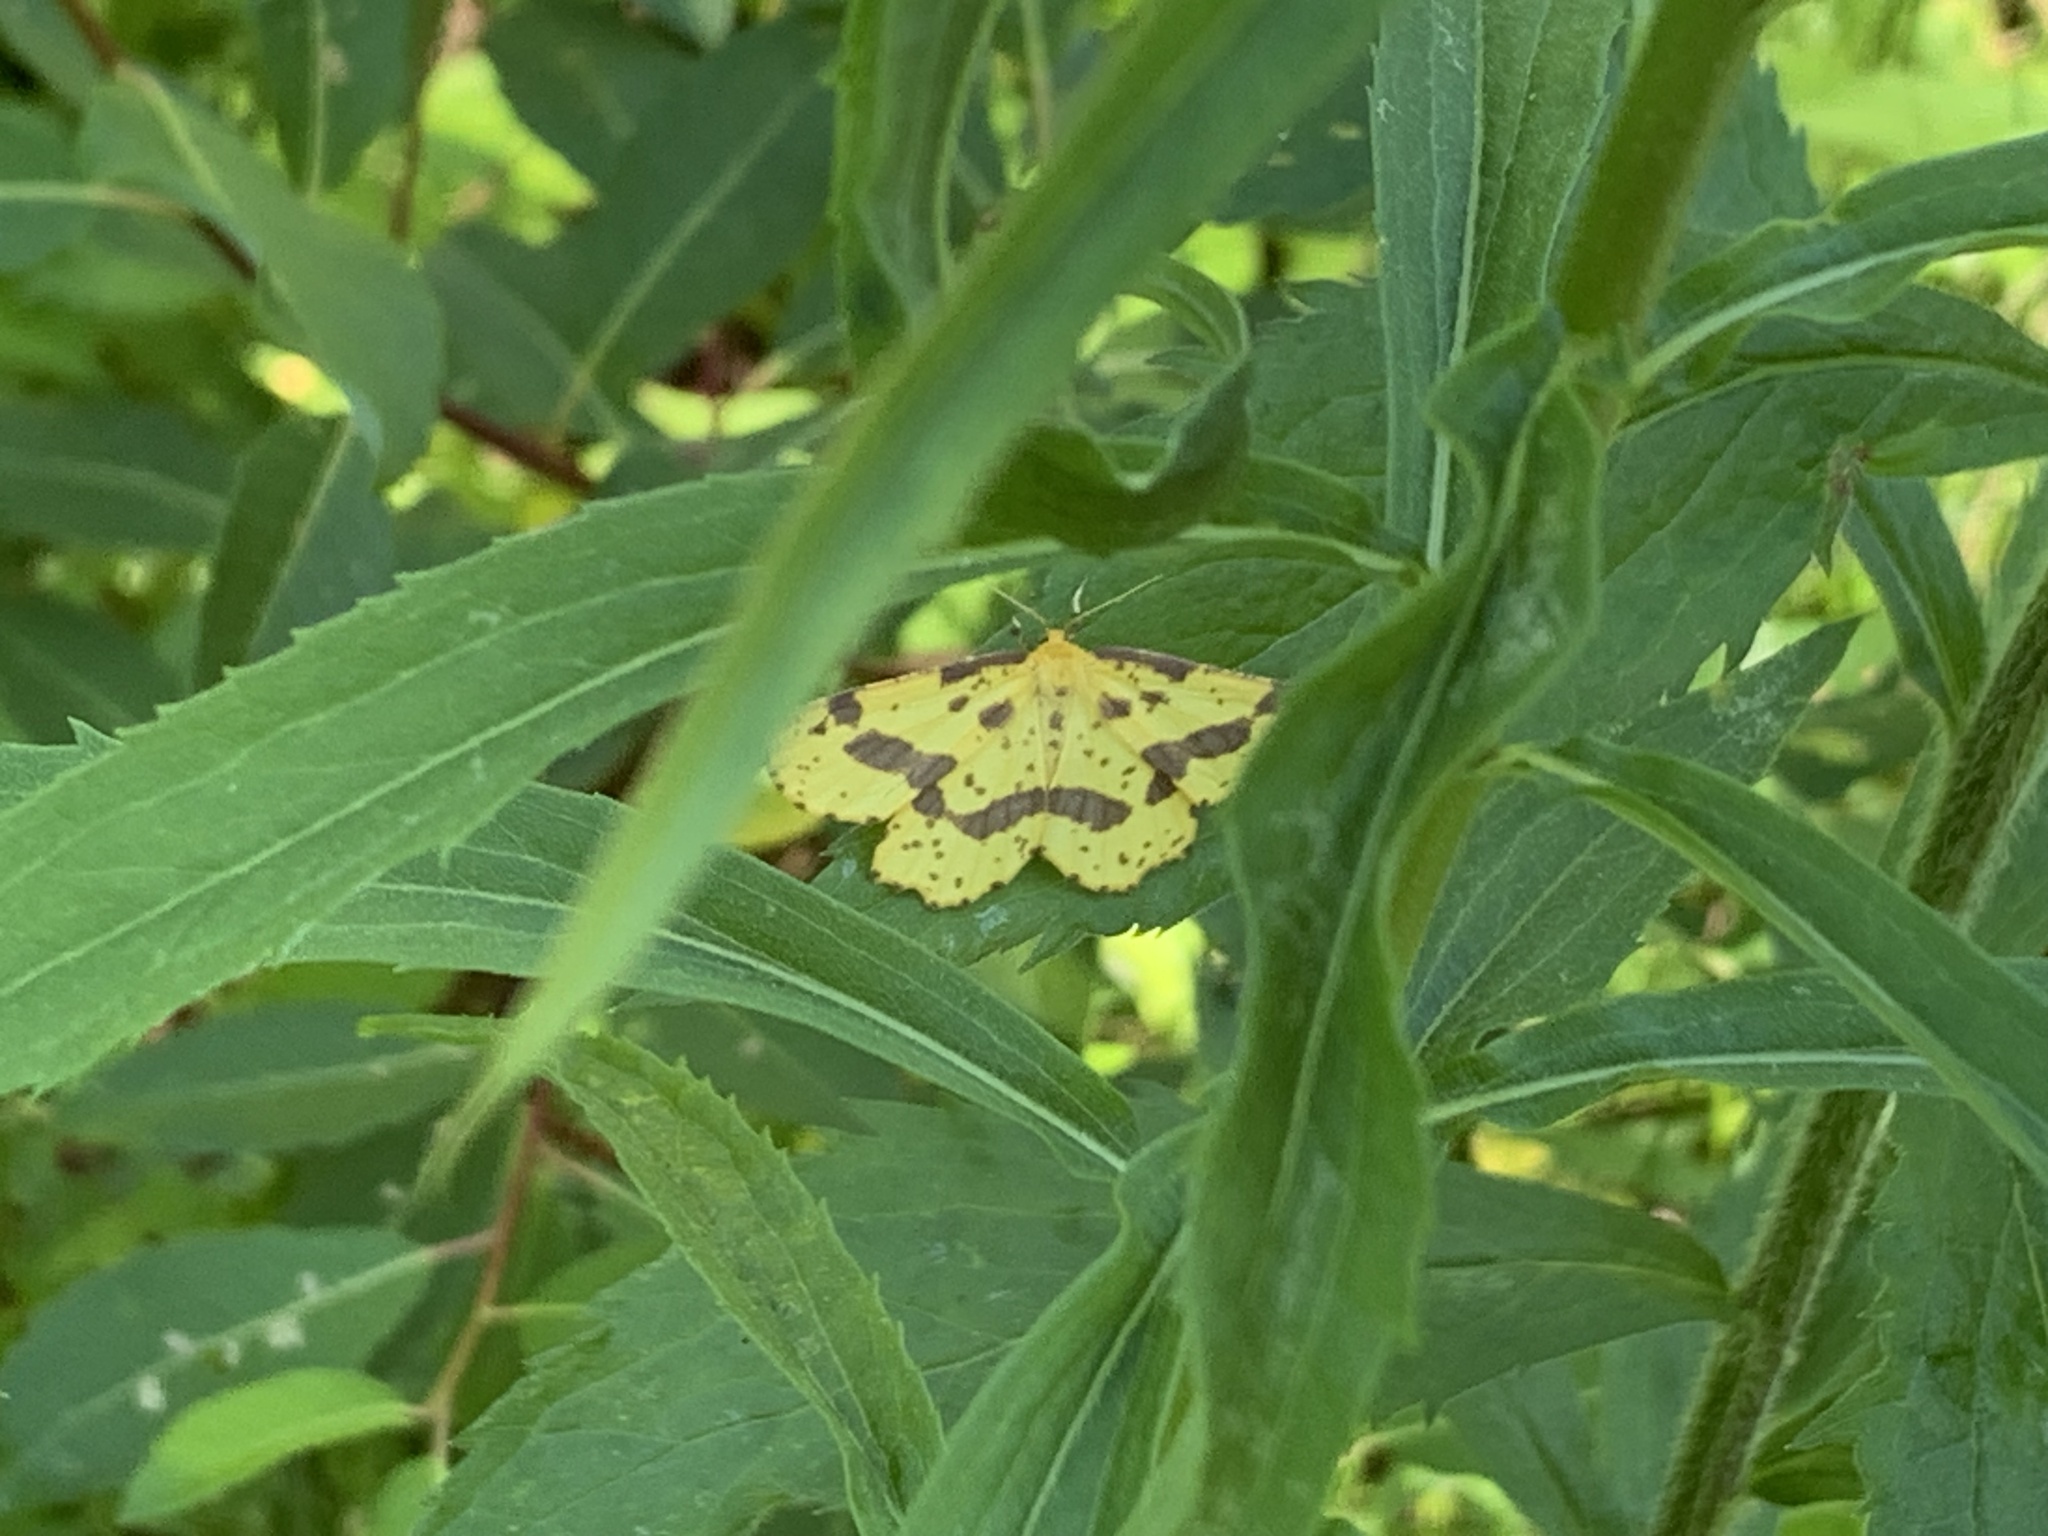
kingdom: Animalia
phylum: Arthropoda
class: Insecta
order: Lepidoptera
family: Geometridae
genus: Xanthotype
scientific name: Xanthotype
